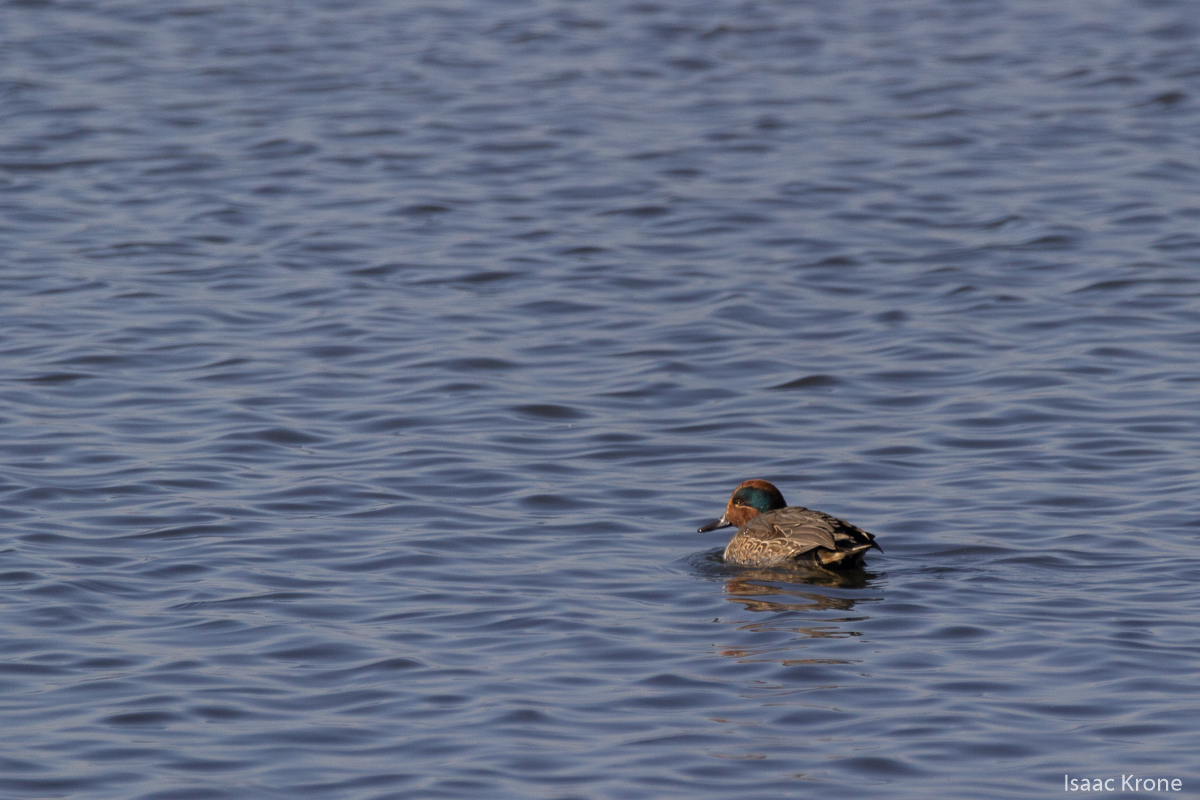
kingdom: Animalia
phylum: Chordata
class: Aves
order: Anseriformes
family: Anatidae
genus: Anas
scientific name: Anas crecca
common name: Eurasian teal
